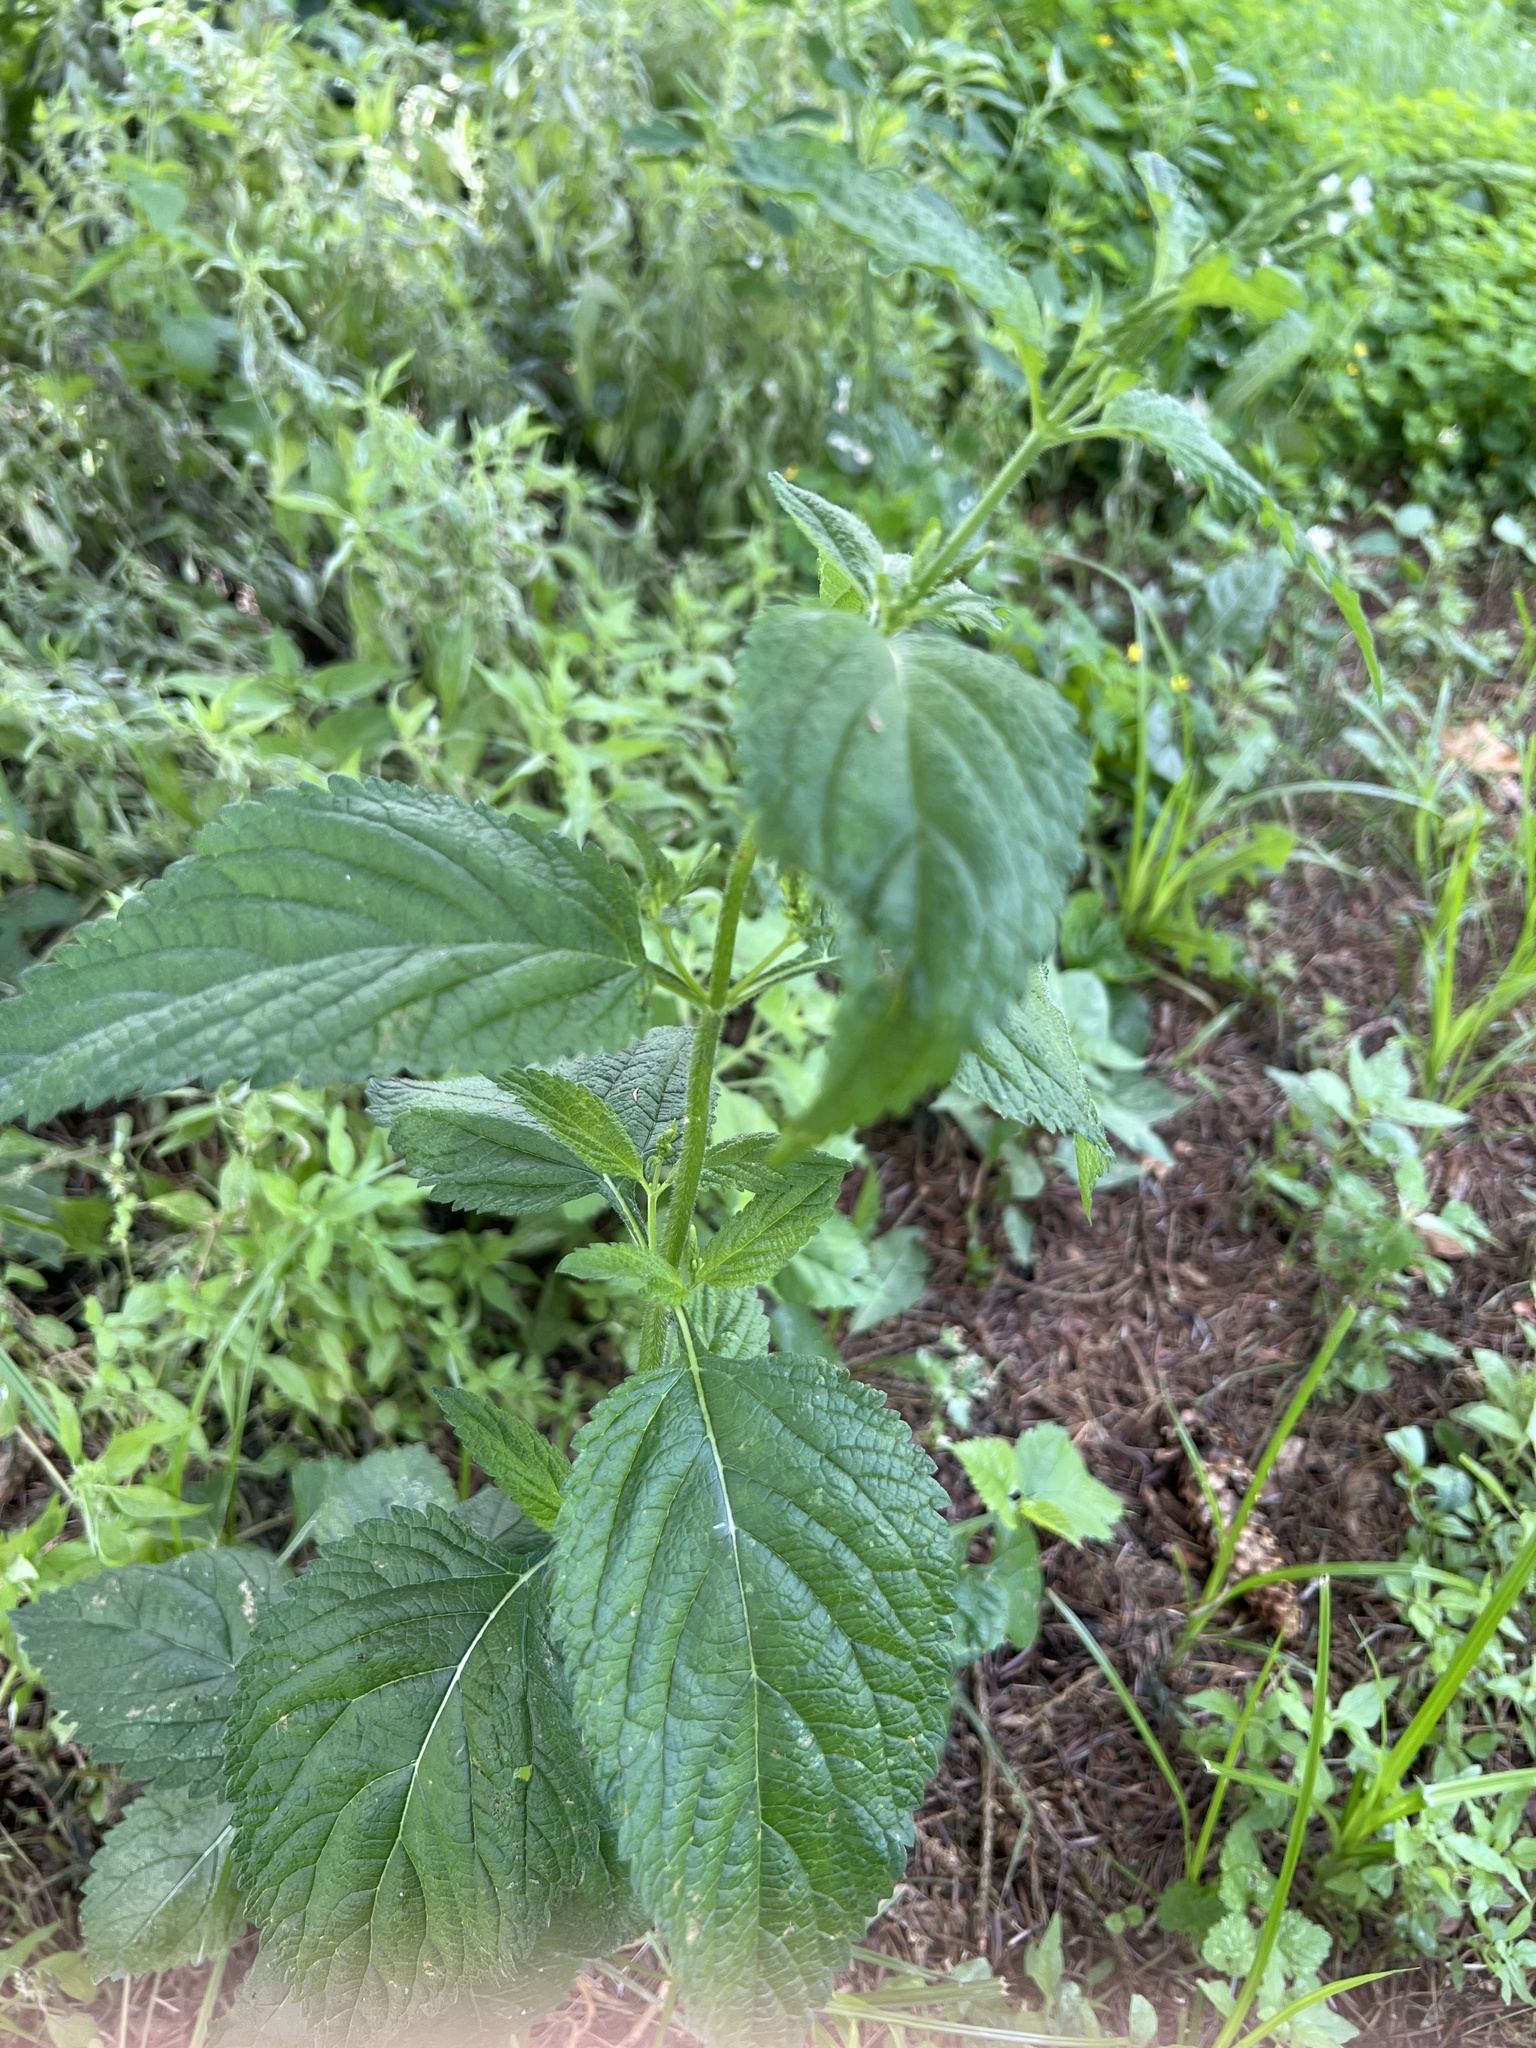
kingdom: Plantae
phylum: Tracheophyta
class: Magnoliopsida
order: Lamiales
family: Verbenaceae
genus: Verbena
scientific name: Verbena urticifolia
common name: Nettle-leaved vervain
